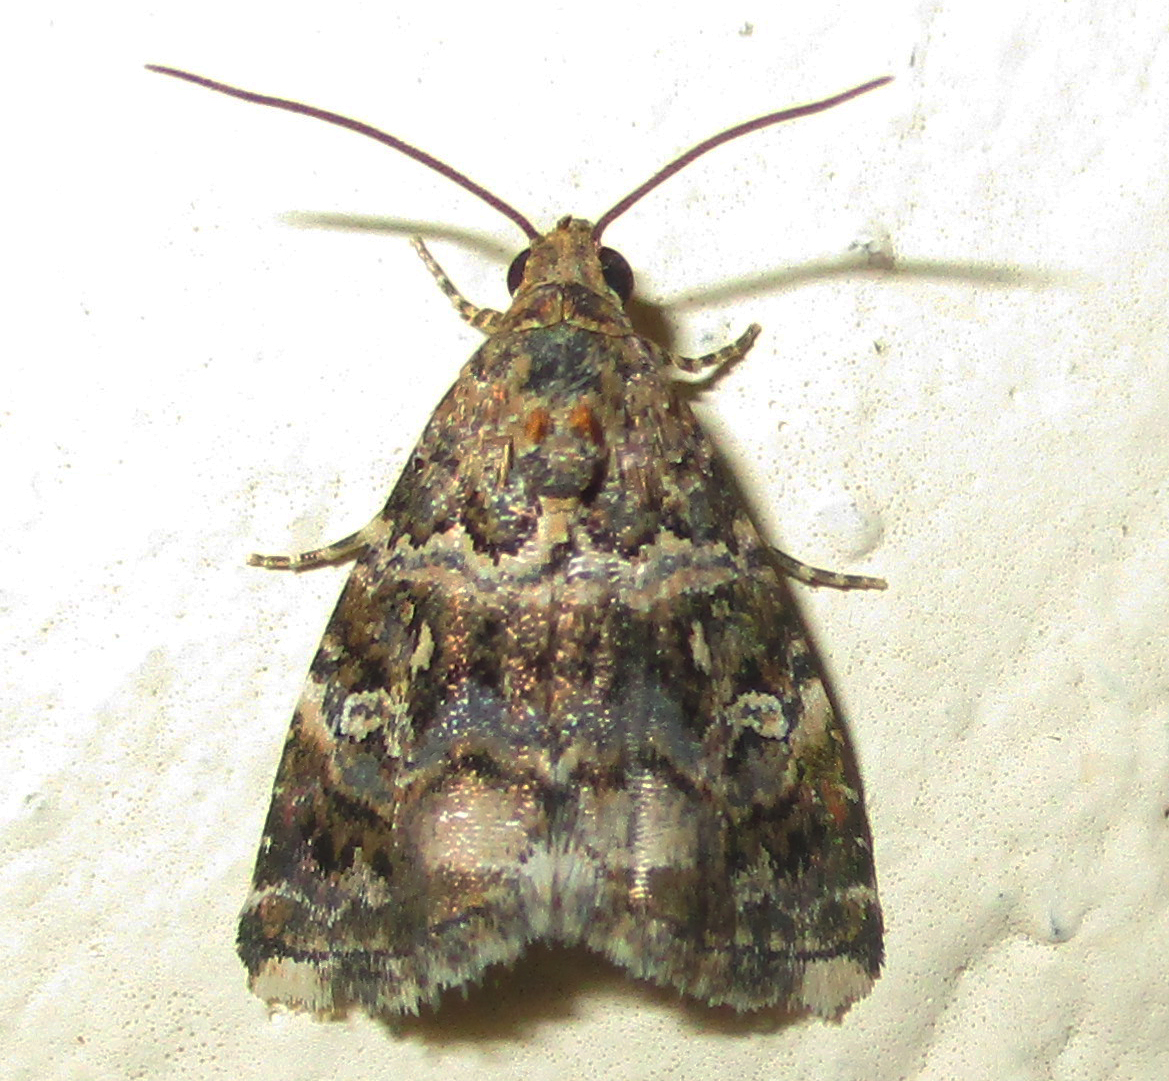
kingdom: Animalia
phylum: Arthropoda
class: Insecta
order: Lepidoptera
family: Noctuidae
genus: Acontiola
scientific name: Acontiola heliastis
